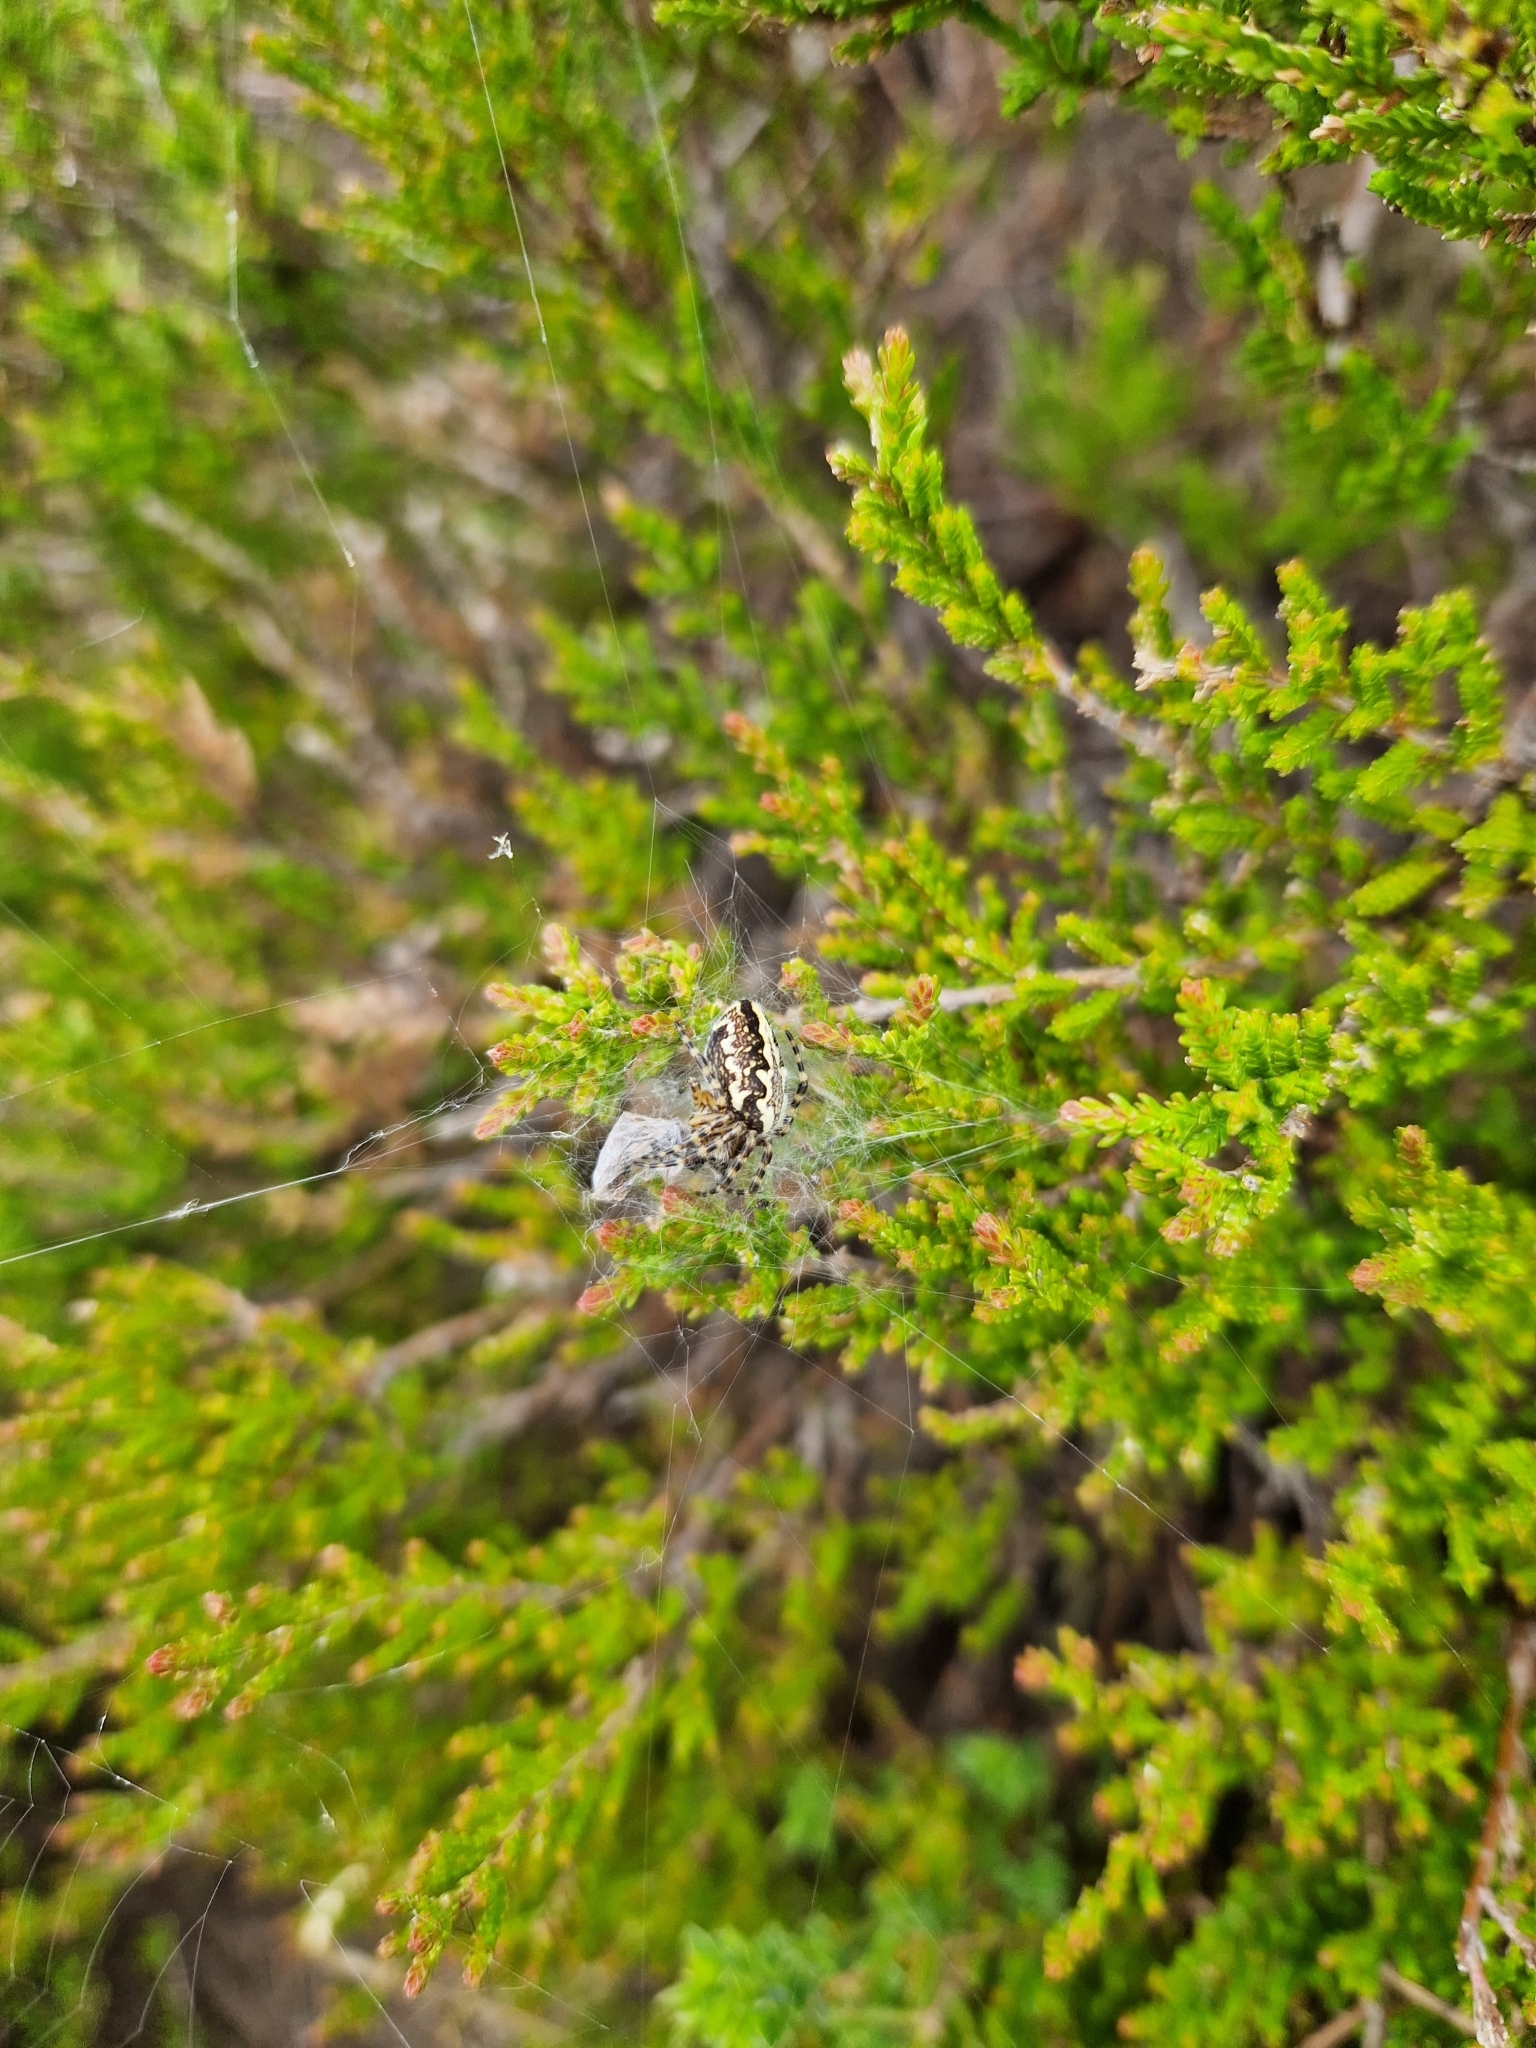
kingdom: Animalia
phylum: Arthropoda
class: Arachnida
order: Araneae
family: Araneidae
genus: Aculepeira
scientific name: Aculepeira ceropegia
